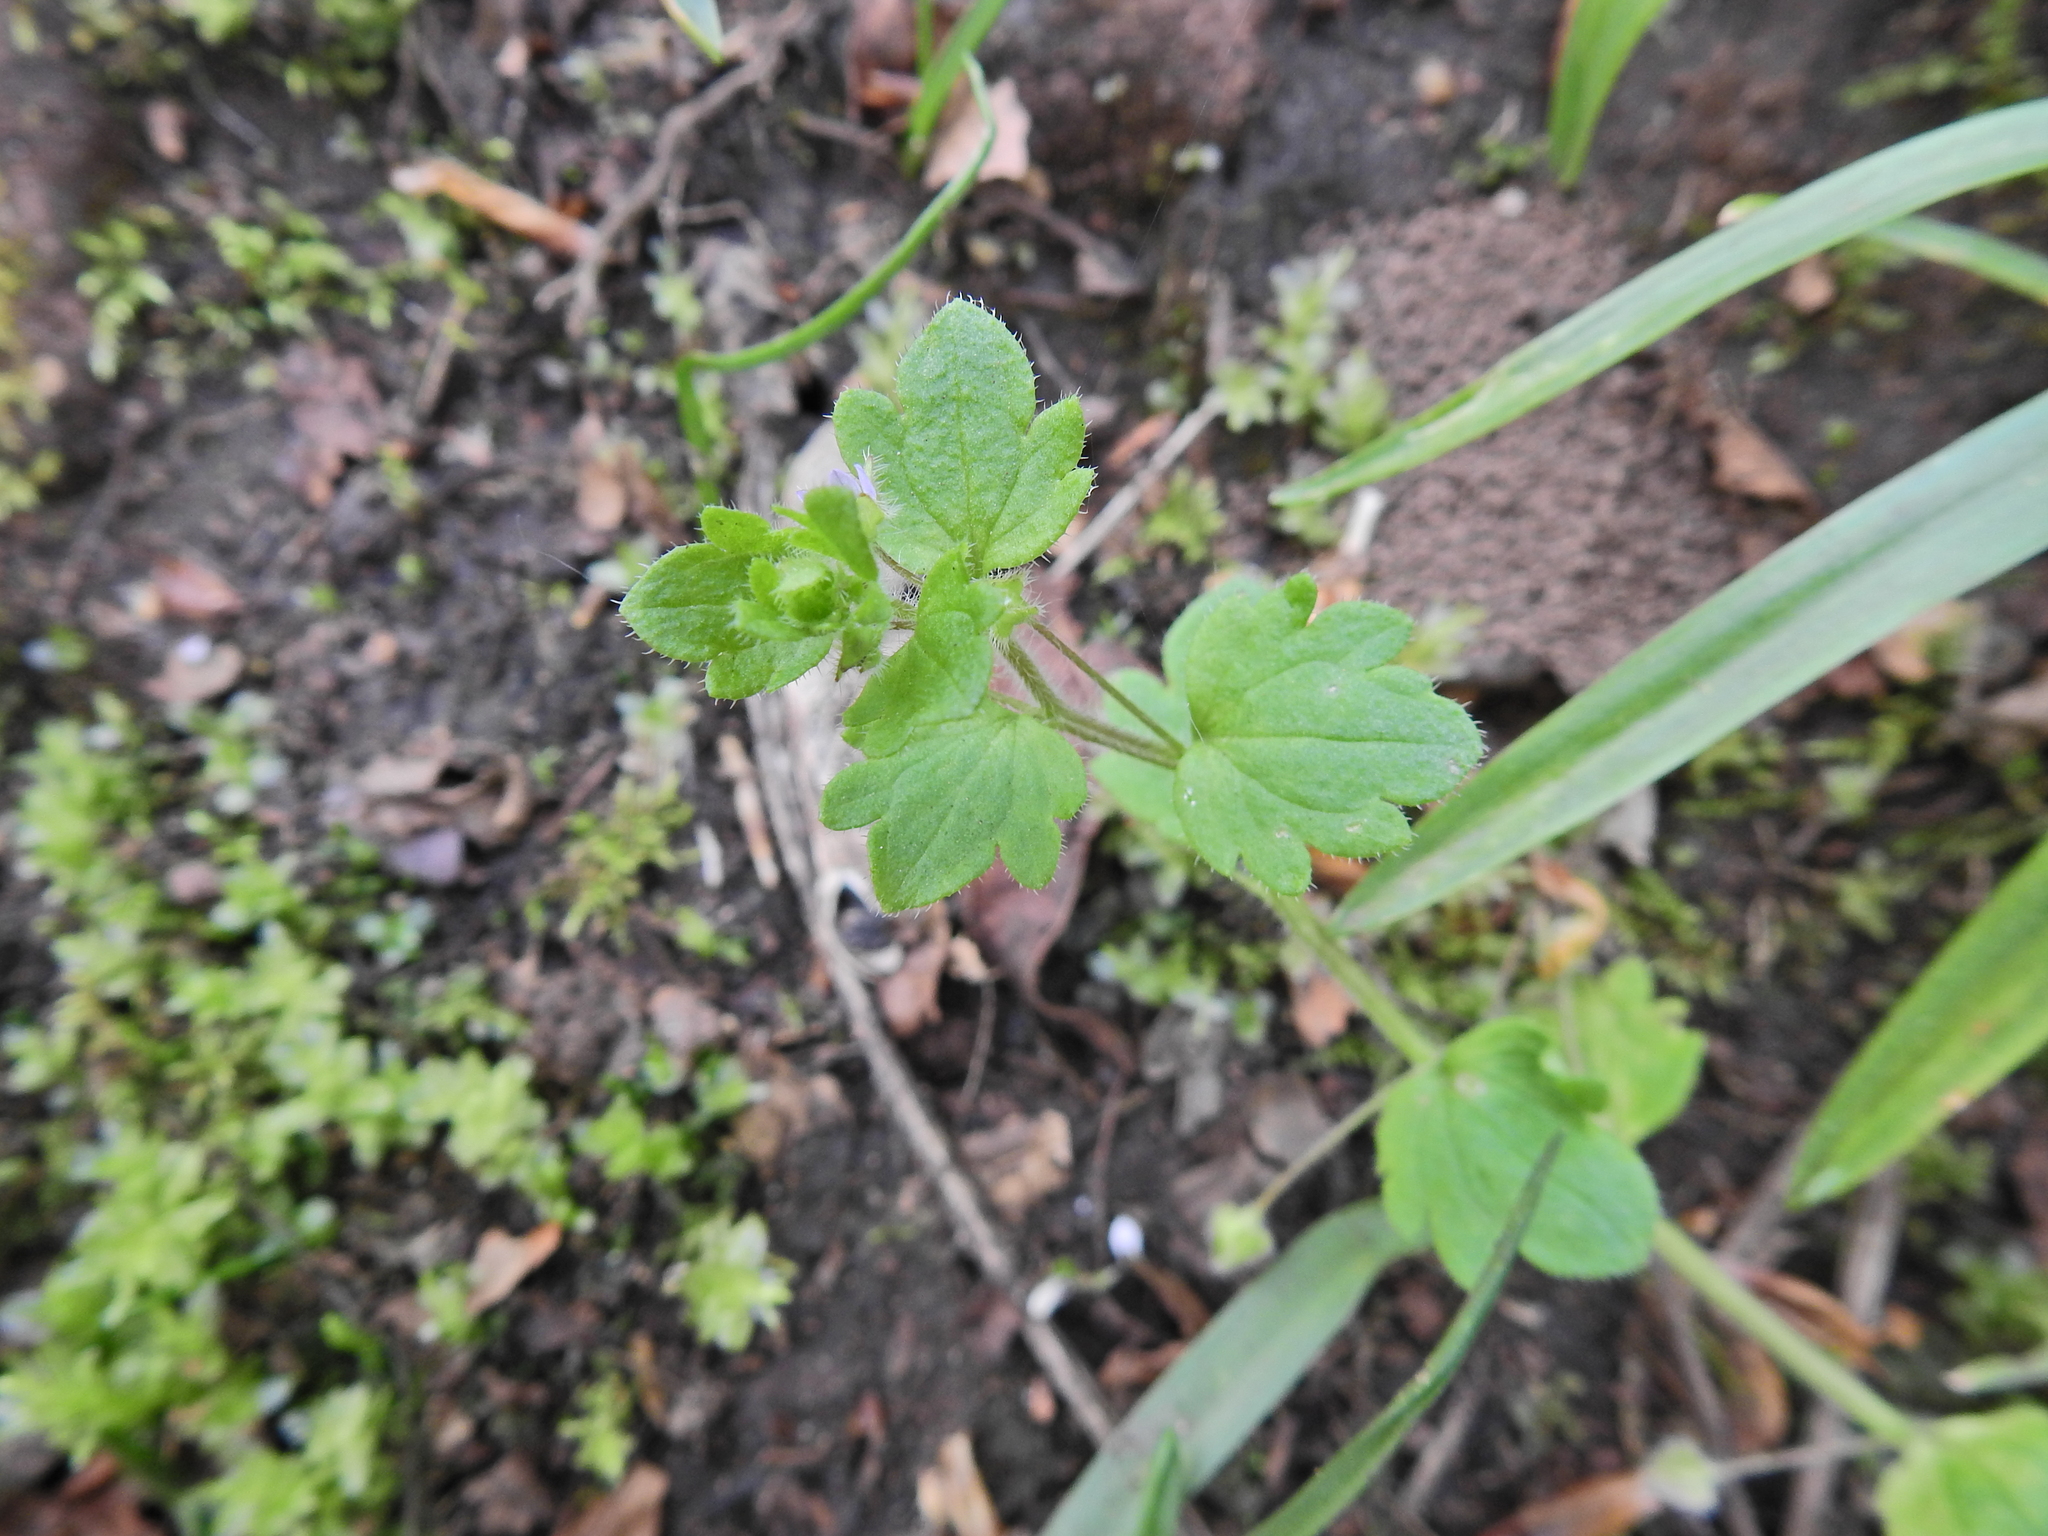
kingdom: Plantae
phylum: Tracheophyta
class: Magnoliopsida
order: Lamiales
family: Plantaginaceae
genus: Veronica
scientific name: Veronica hederifolia
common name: Ivy-leaved speedwell
